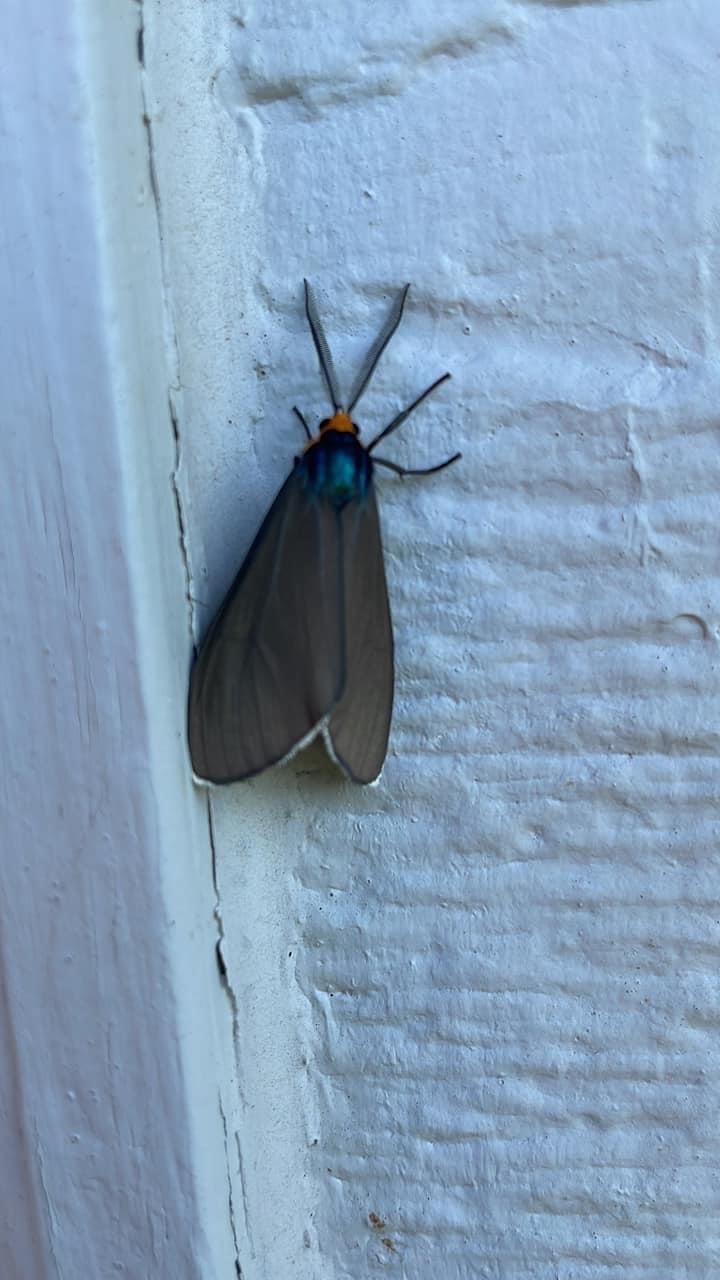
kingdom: Animalia
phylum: Arthropoda
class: Insecta
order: Lepidoptera
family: Erebidae
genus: Ctenucha
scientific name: Ctenucha virginica
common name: Virginia ctenucha moth
